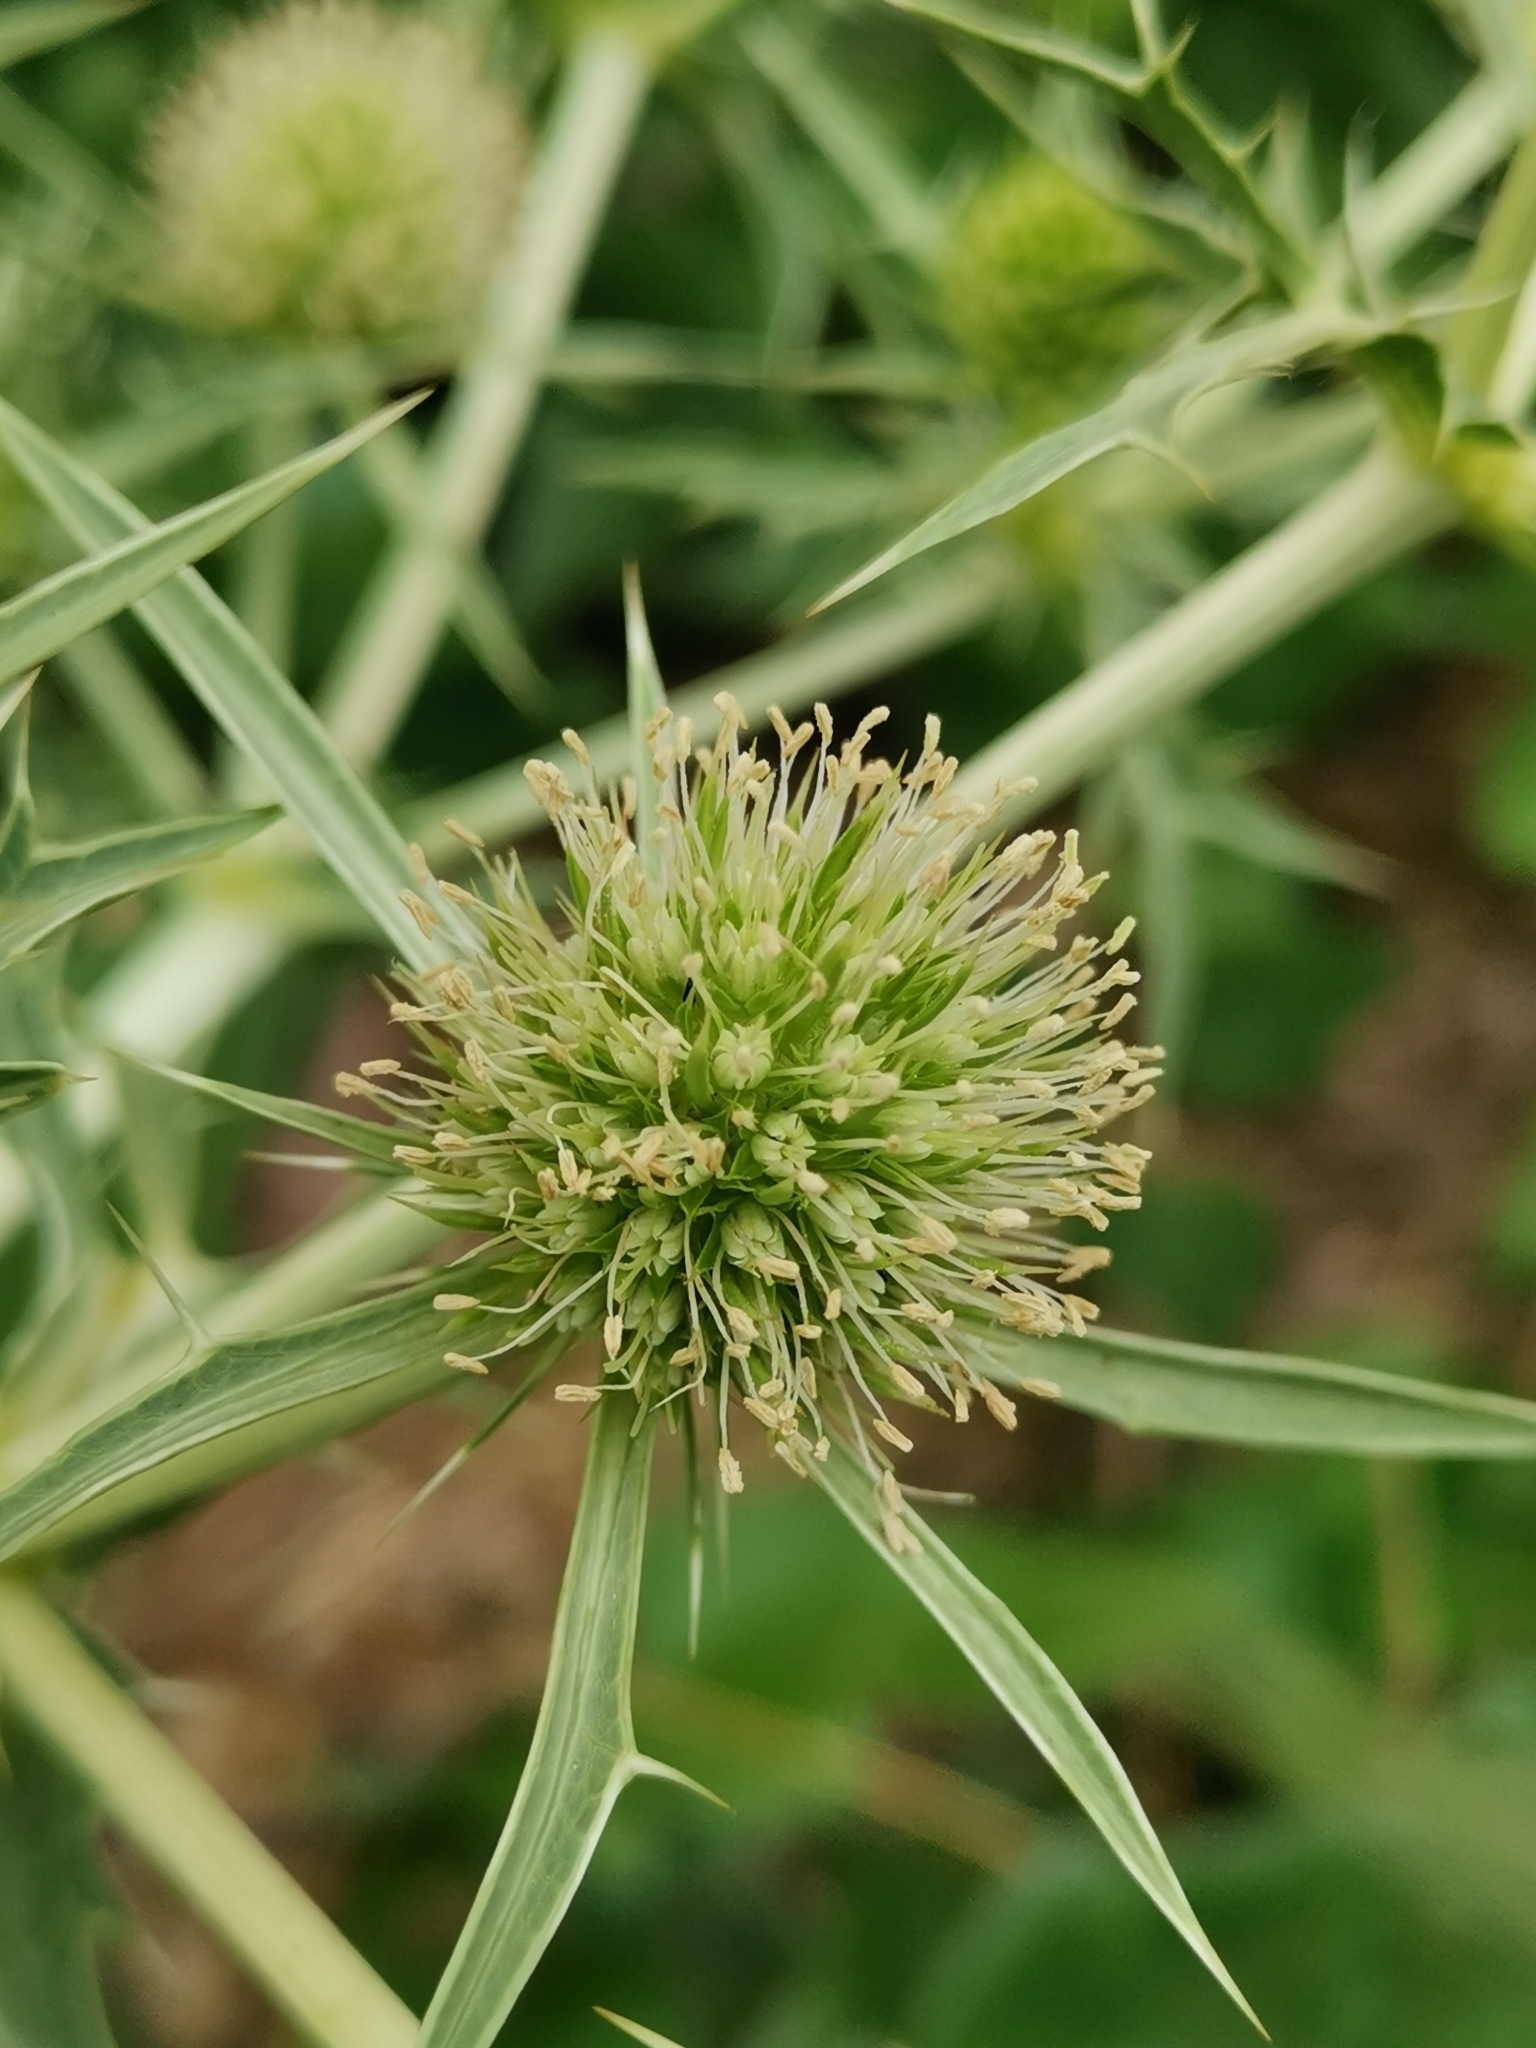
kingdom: Plantae
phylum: Tracheophyta
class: Magnoliopsida
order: Apiales
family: Apiaceae
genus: Eryngium
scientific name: Eryngium campestre
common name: Field eryngo
